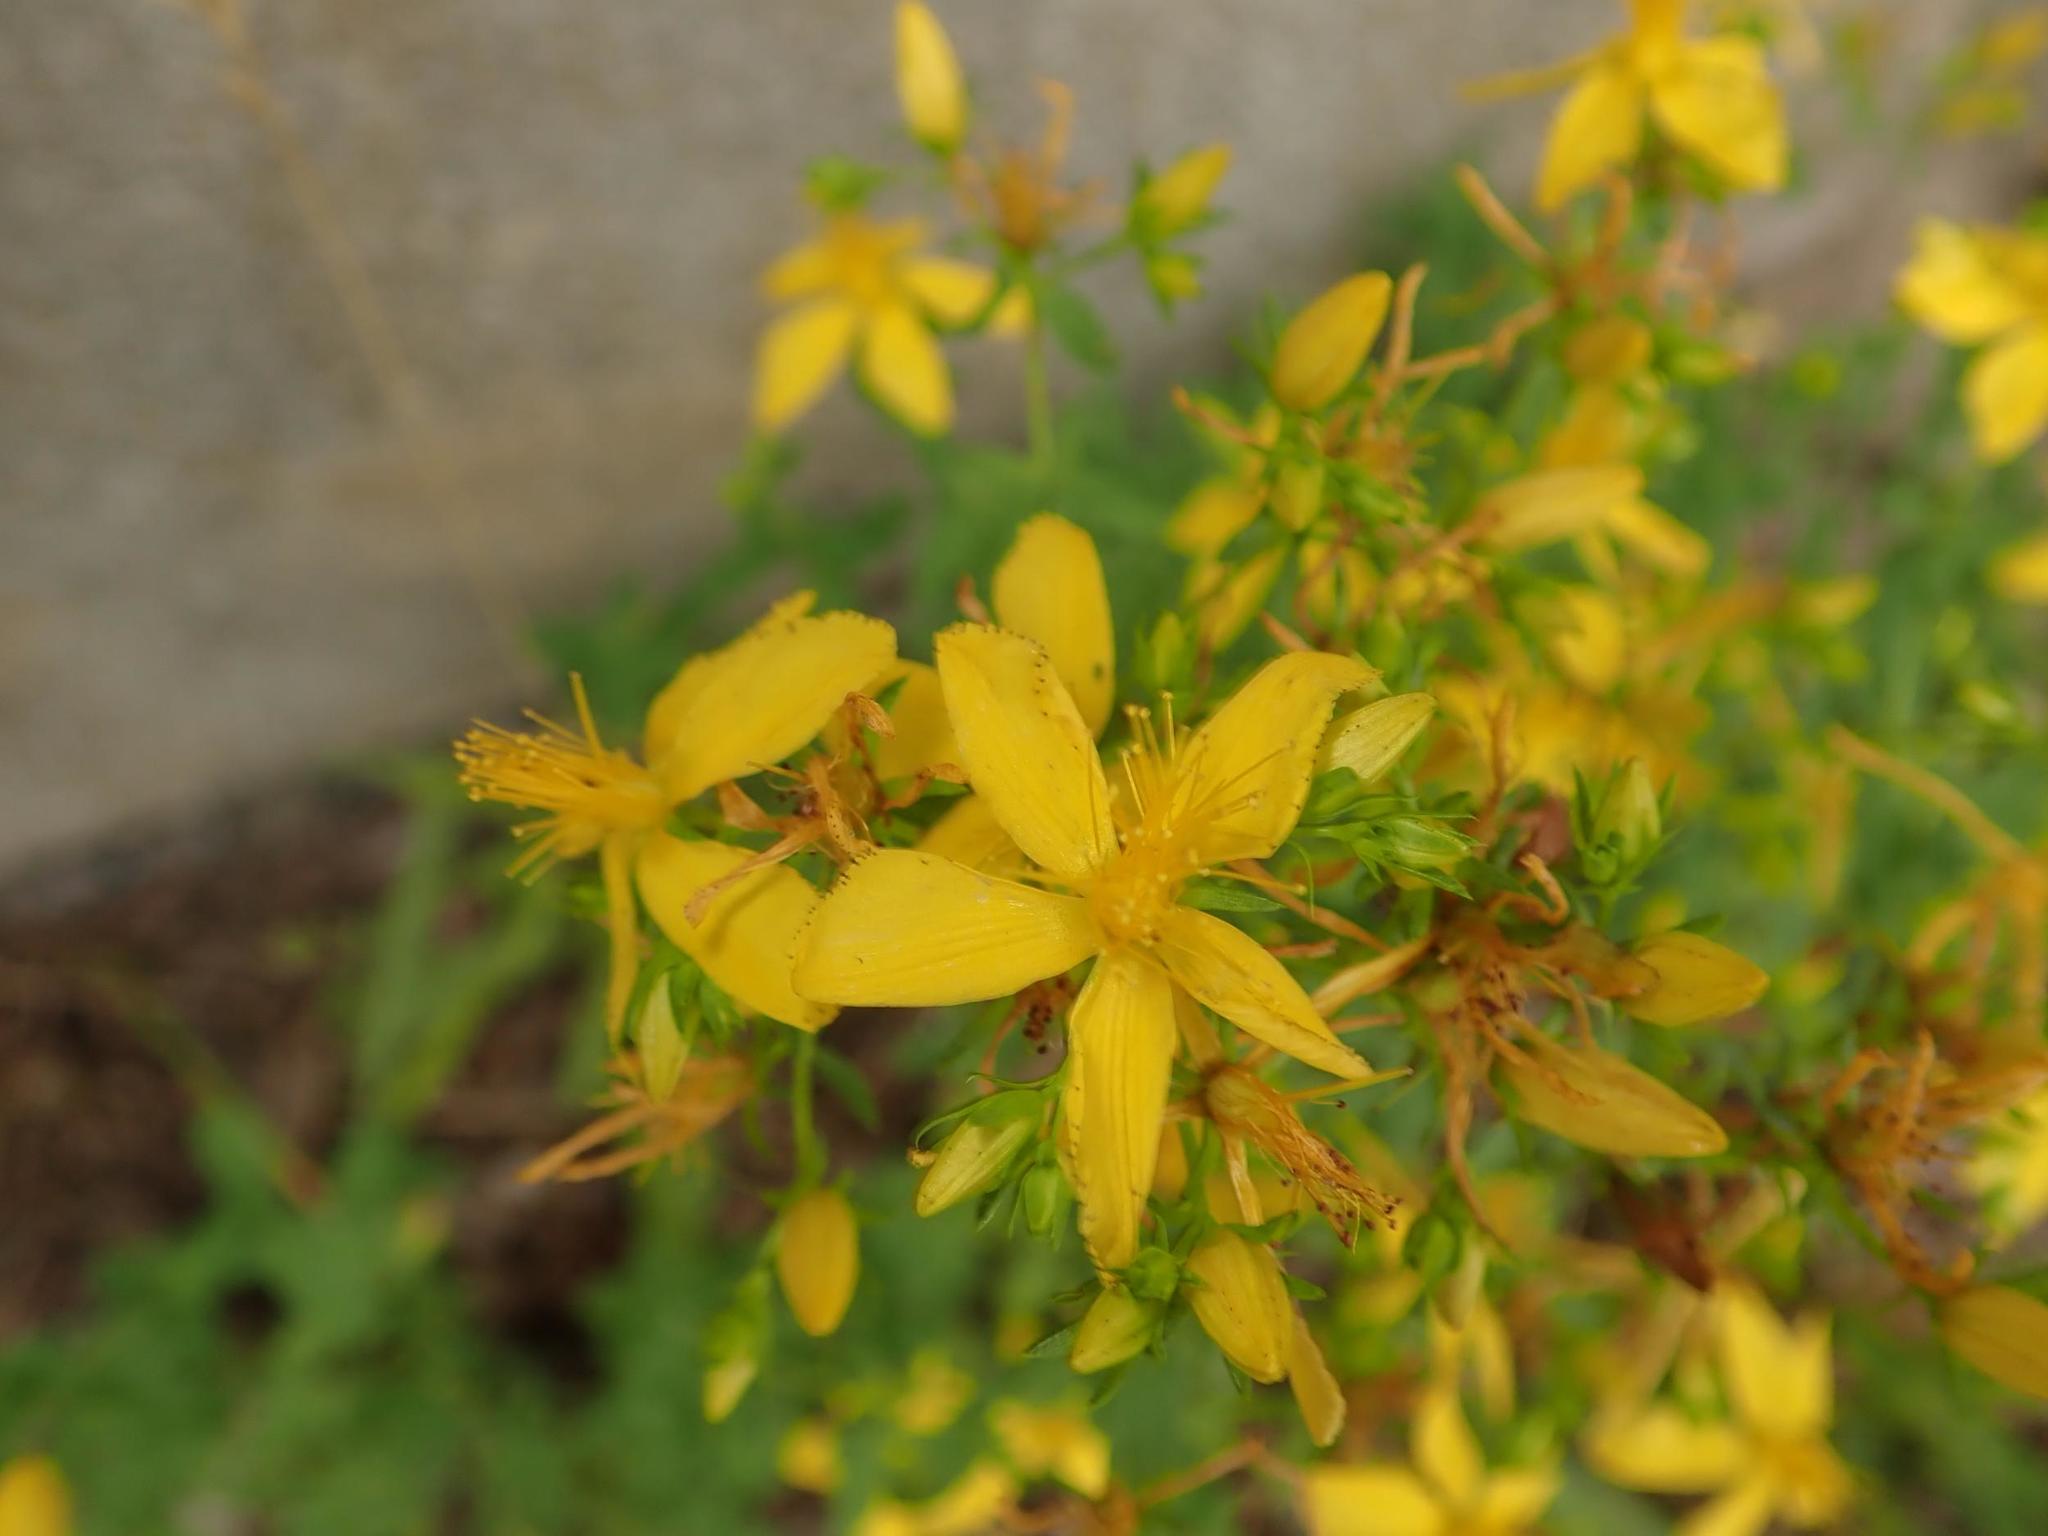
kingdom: Plantae
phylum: Tracheophyta
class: Magnoliopsida
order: Malpighiales
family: Hypericaceae
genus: Hypericum
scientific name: Hypericum perforatum
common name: Common st. johnswort
